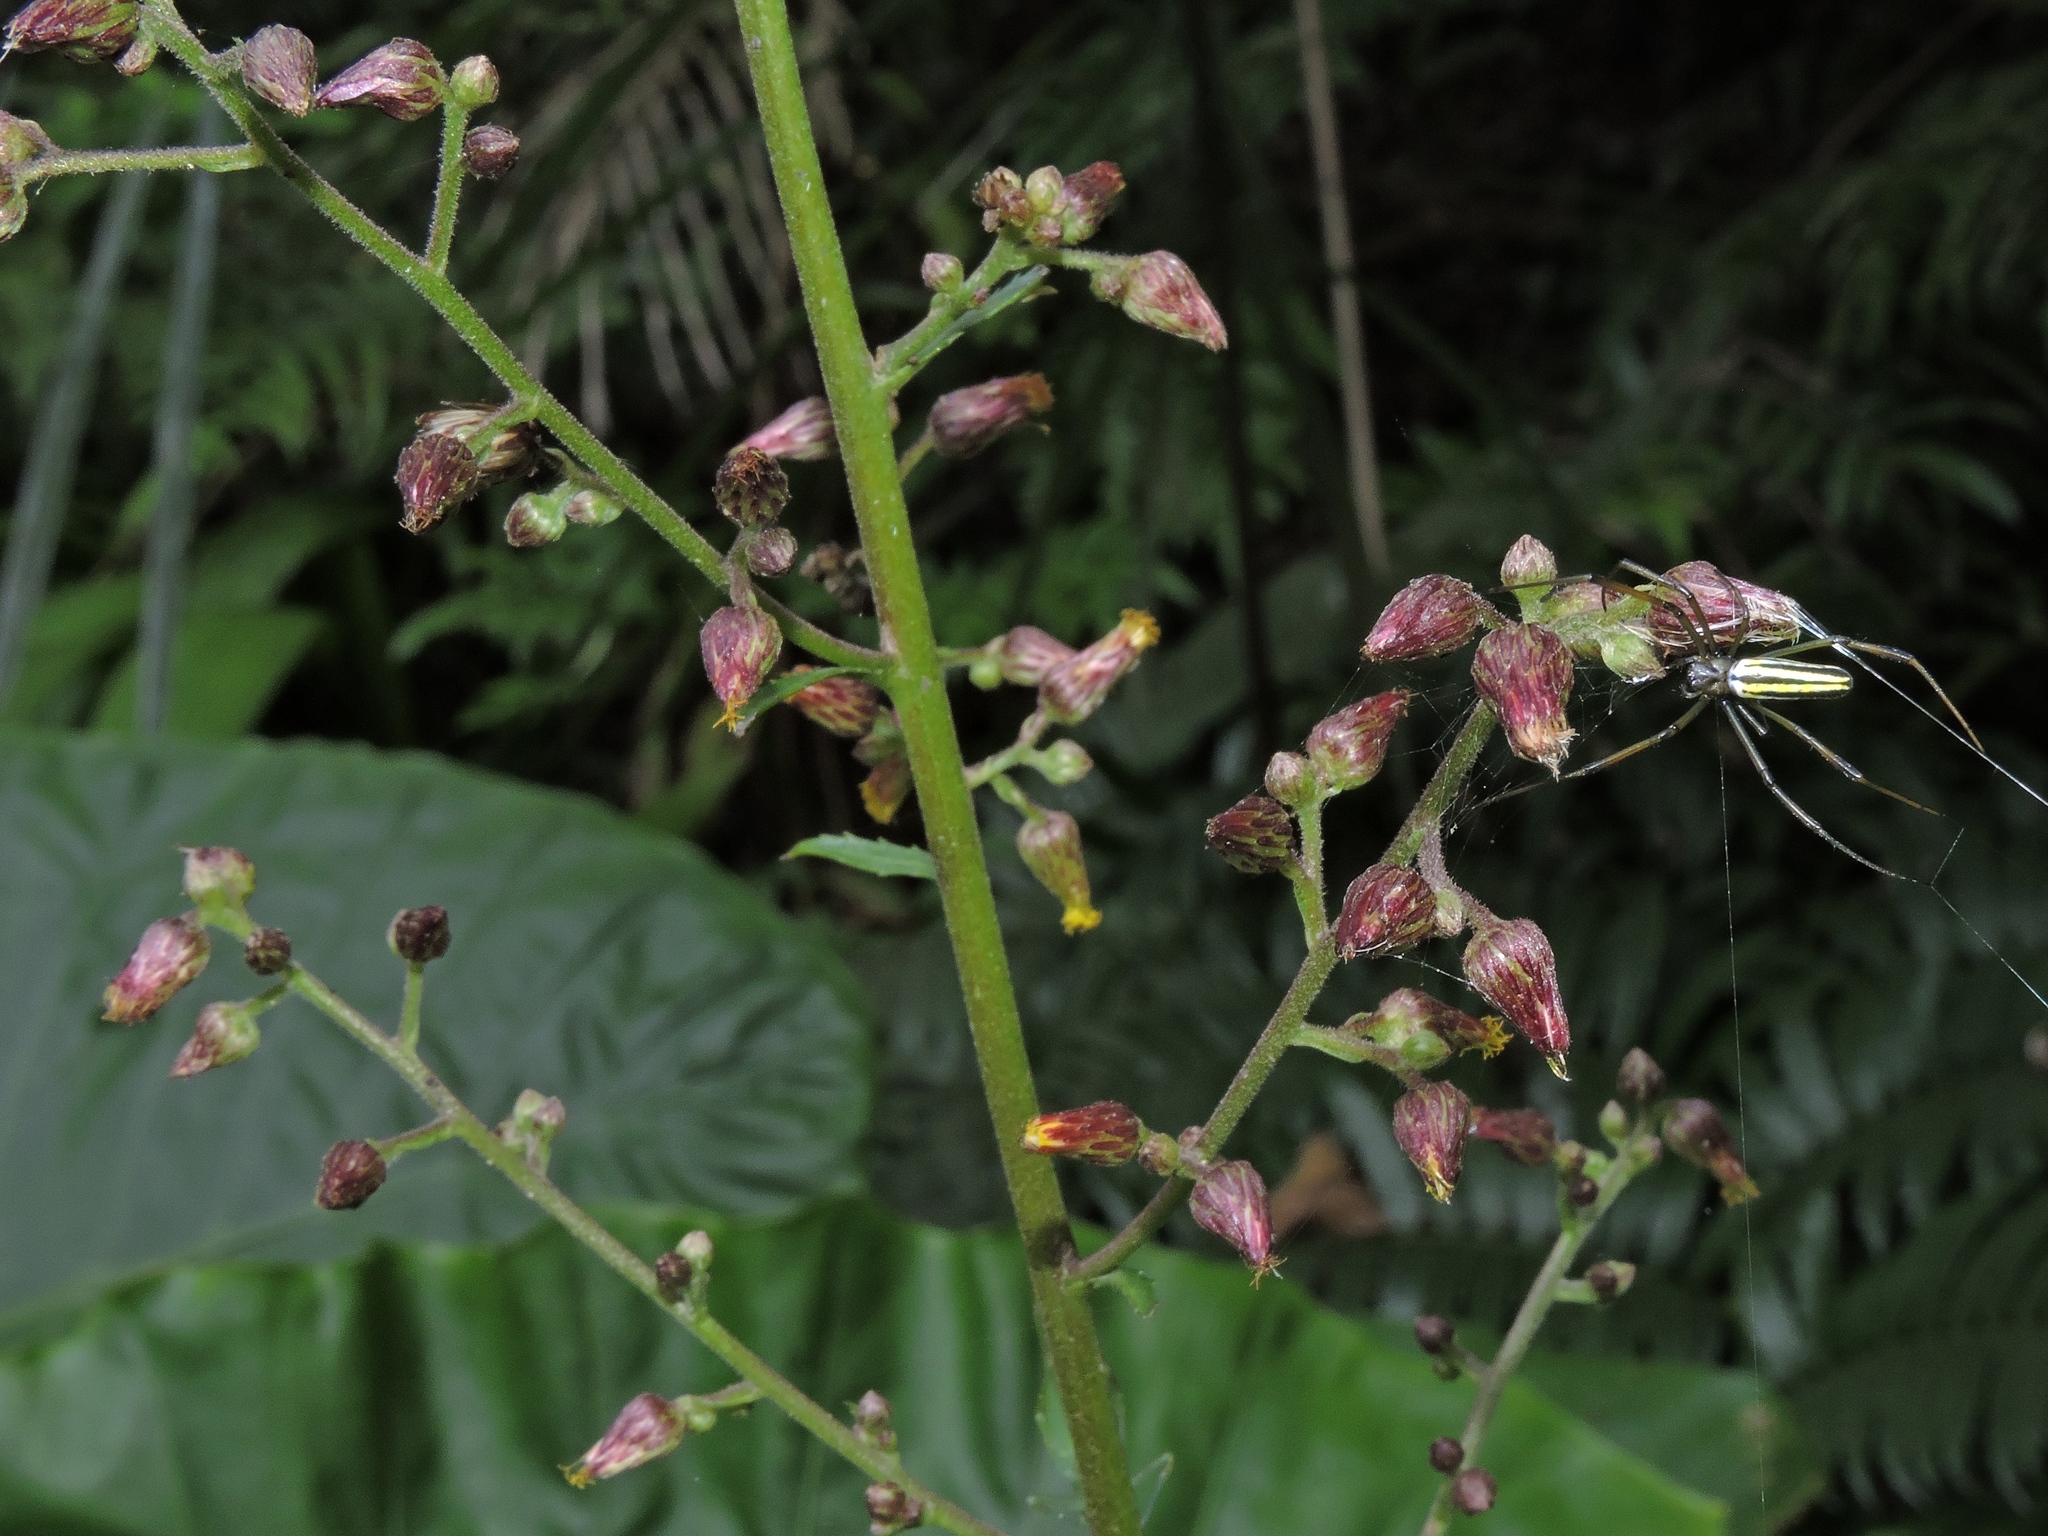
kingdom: Plantae
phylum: Tracheophyta
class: Magnoliopsida
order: Asterales
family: Asteraceae
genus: Blumea
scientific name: Blumea lanceolaria
